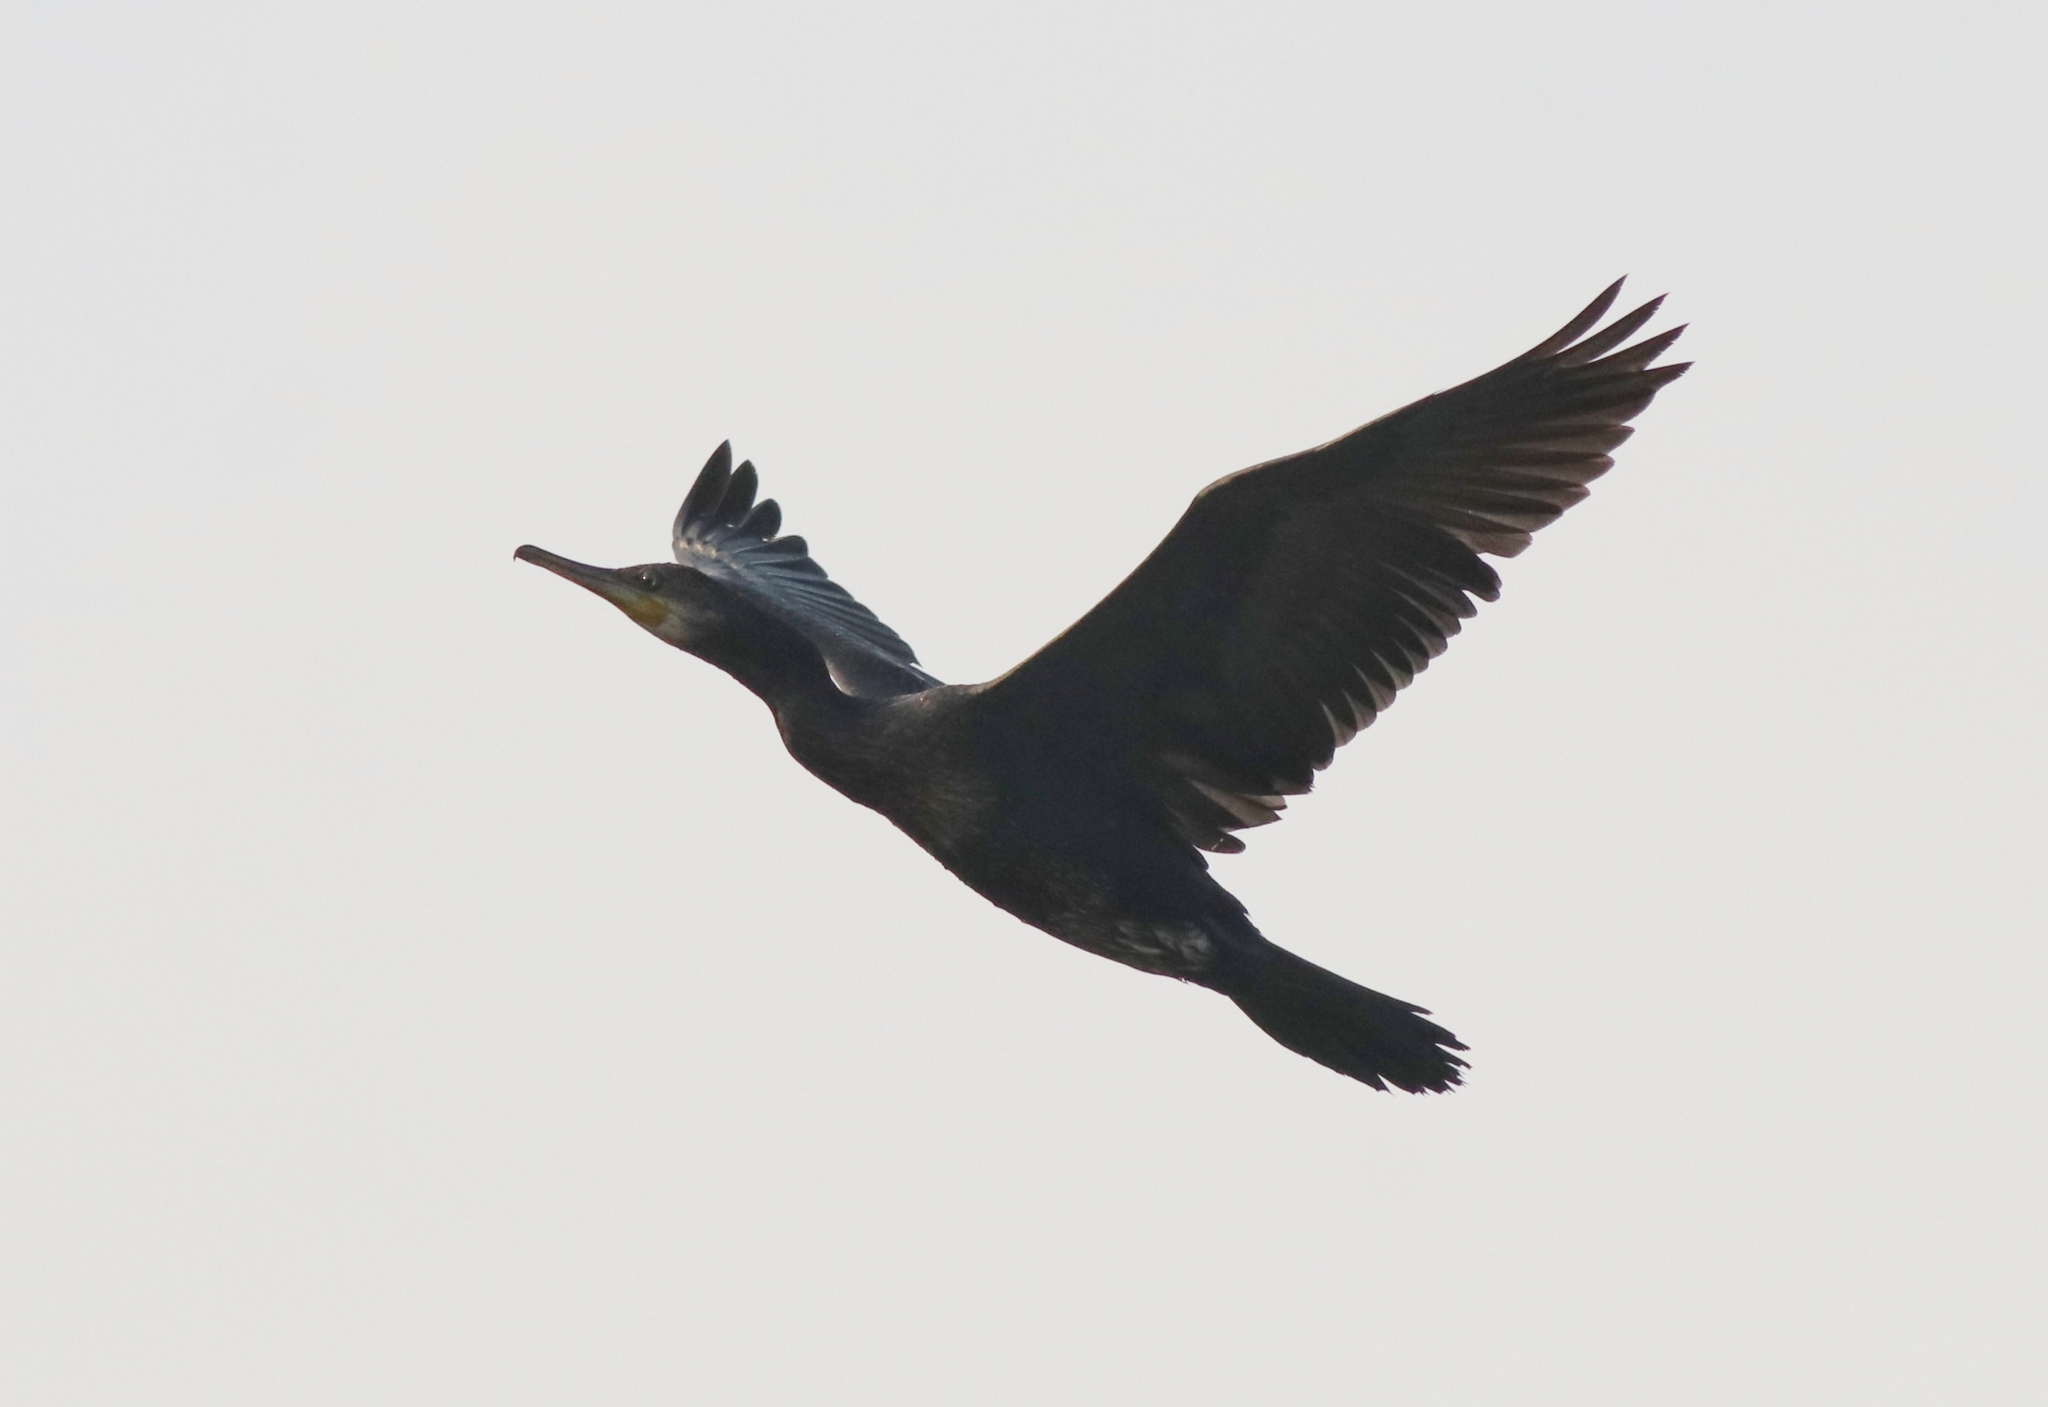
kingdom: Animalia
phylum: Chordata
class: Aves
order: Suliformes
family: Phalacrocoracidae
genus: Phalacrocorax
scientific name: Phalacrocorax fuscicollis
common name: Indian cormorant
